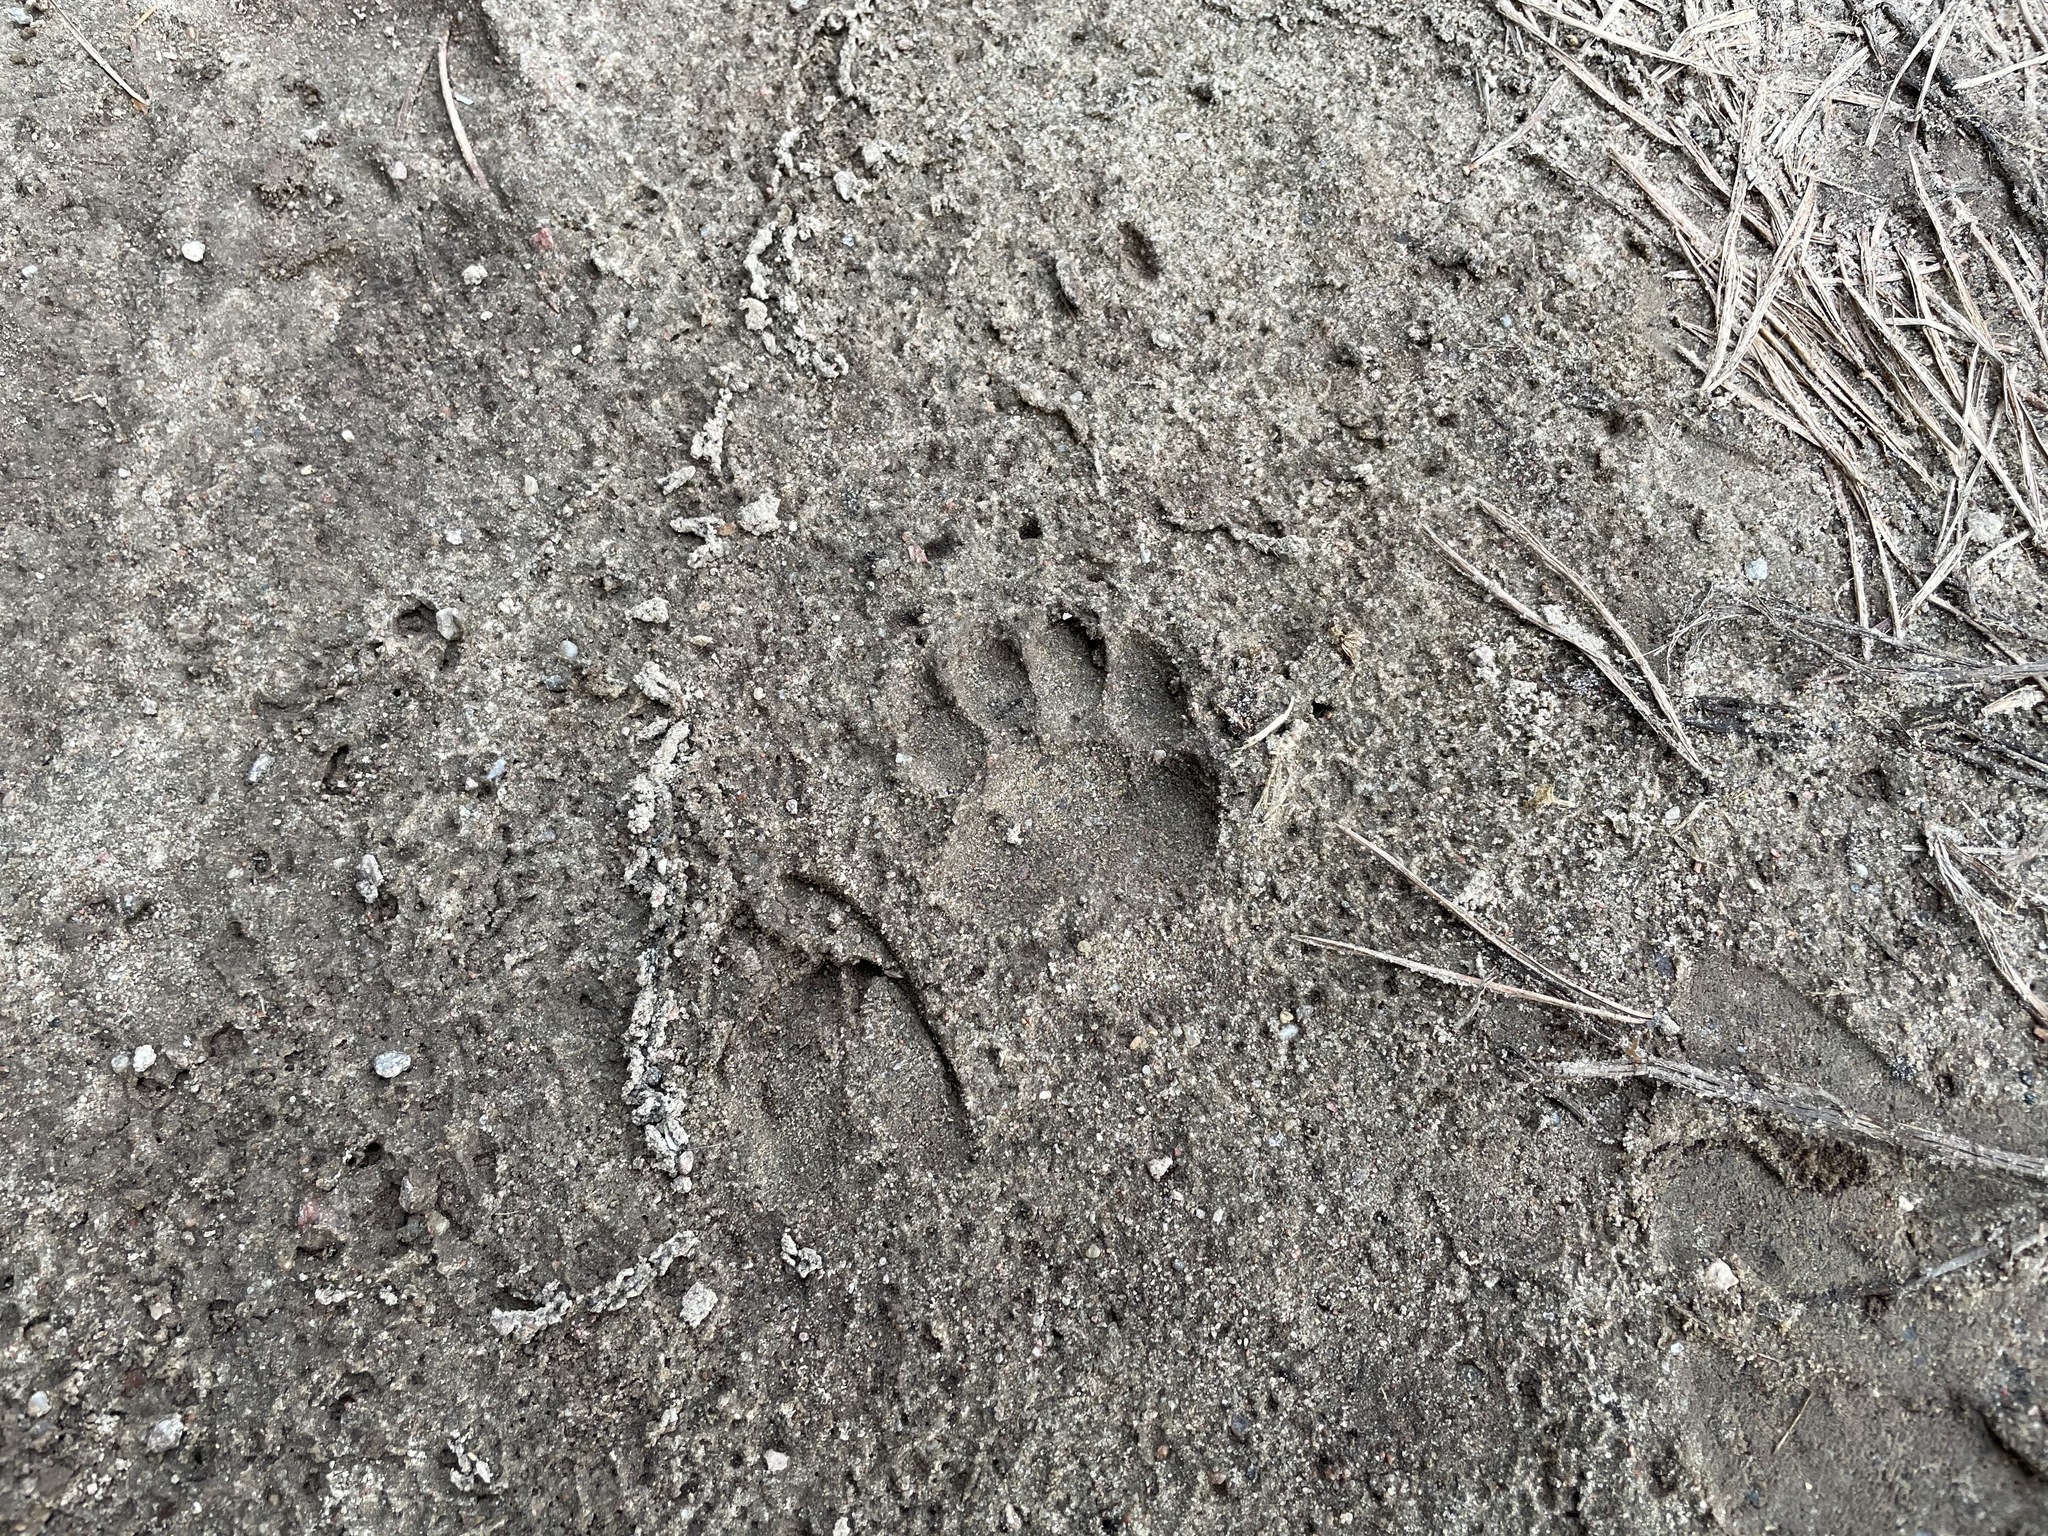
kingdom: Animalia
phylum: Chordata
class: Mammalia
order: Carnivora
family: Mustelidae
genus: Meles
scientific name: Meles meles
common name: Eurasian badger
